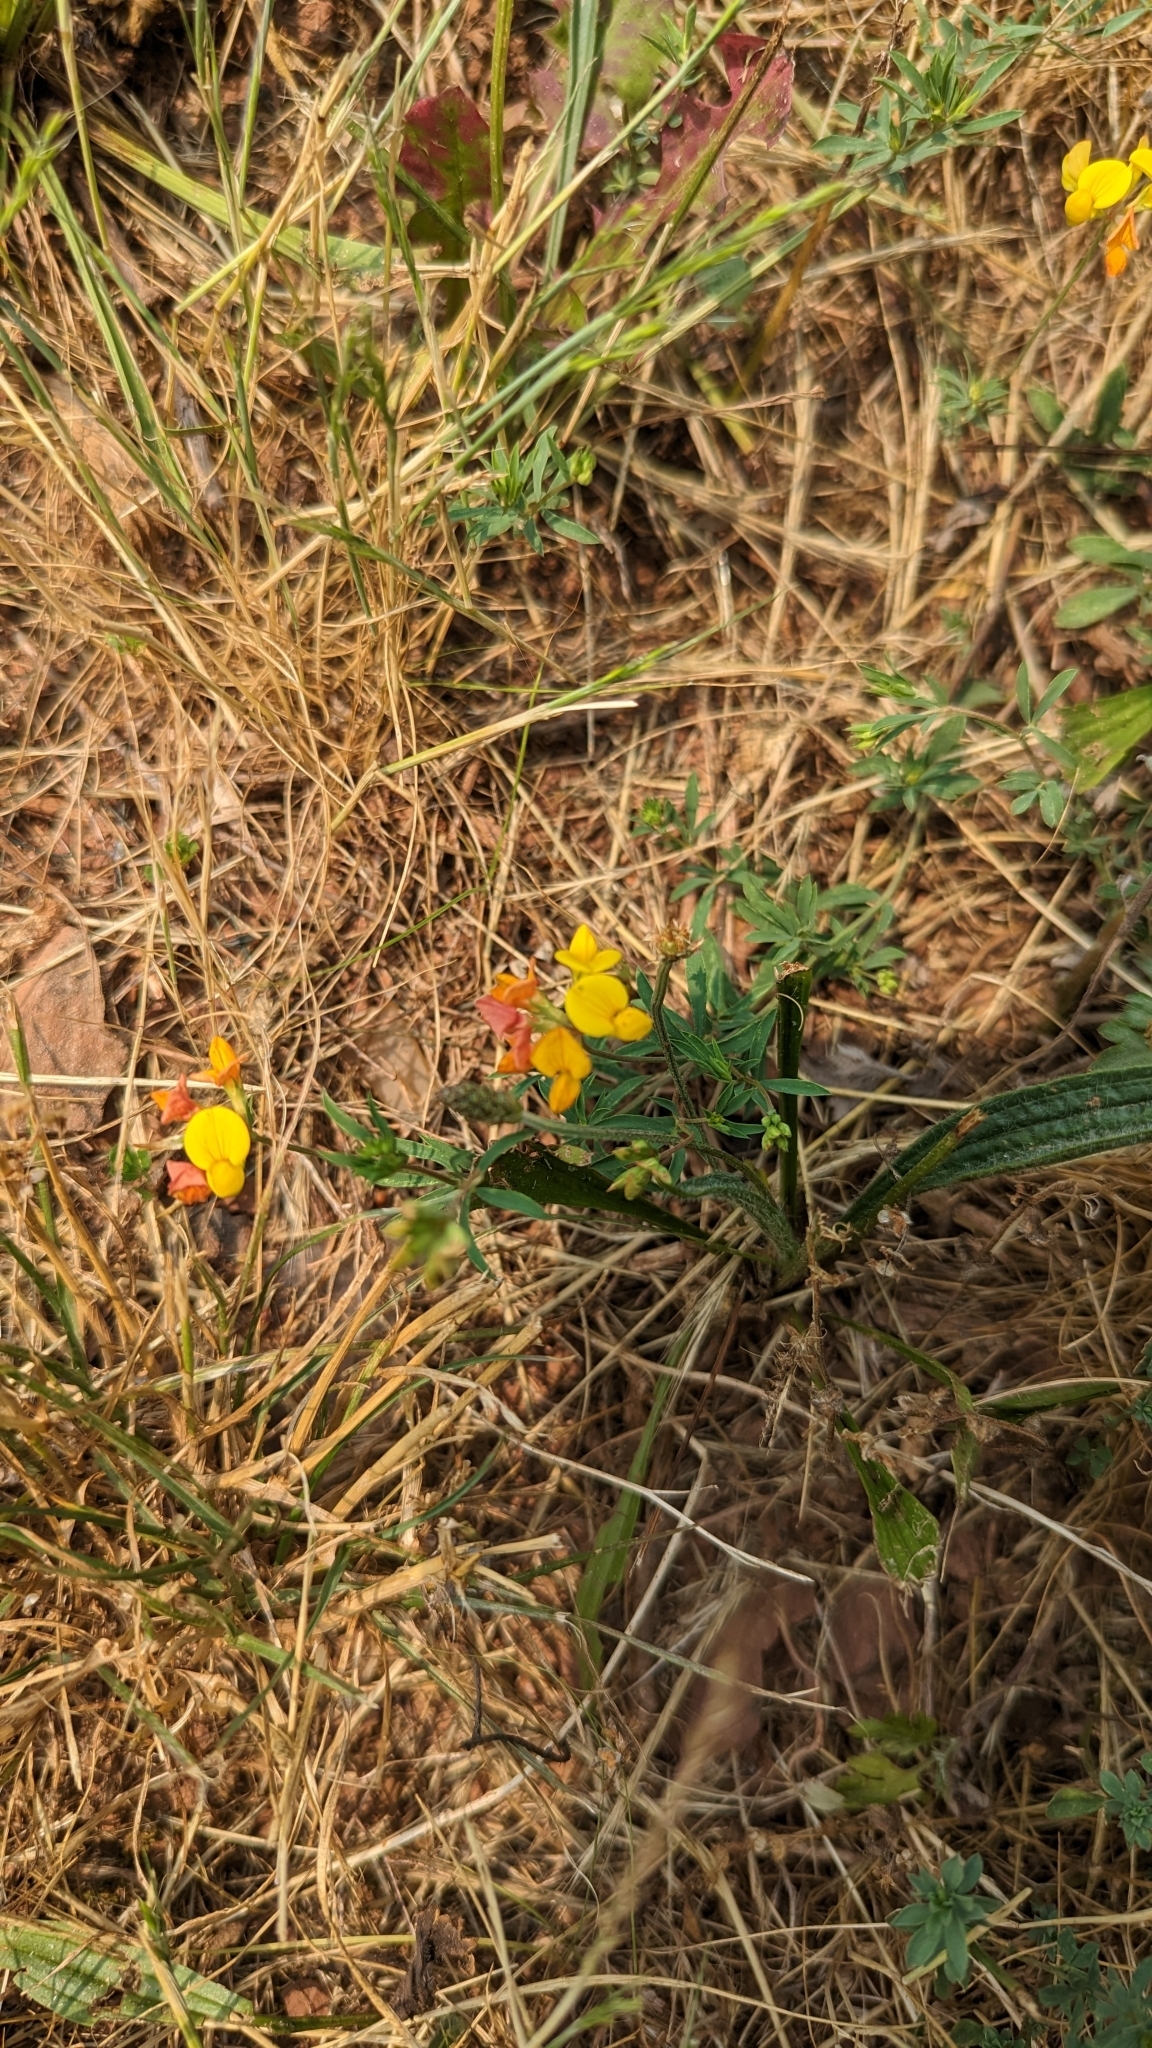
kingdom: Plantae
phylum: Tracheophyta
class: Magnoliopsida
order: Fabales
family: Fabaceae
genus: Lotus
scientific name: Lotus corniculatus
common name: Common bird's-foot-trefoil
